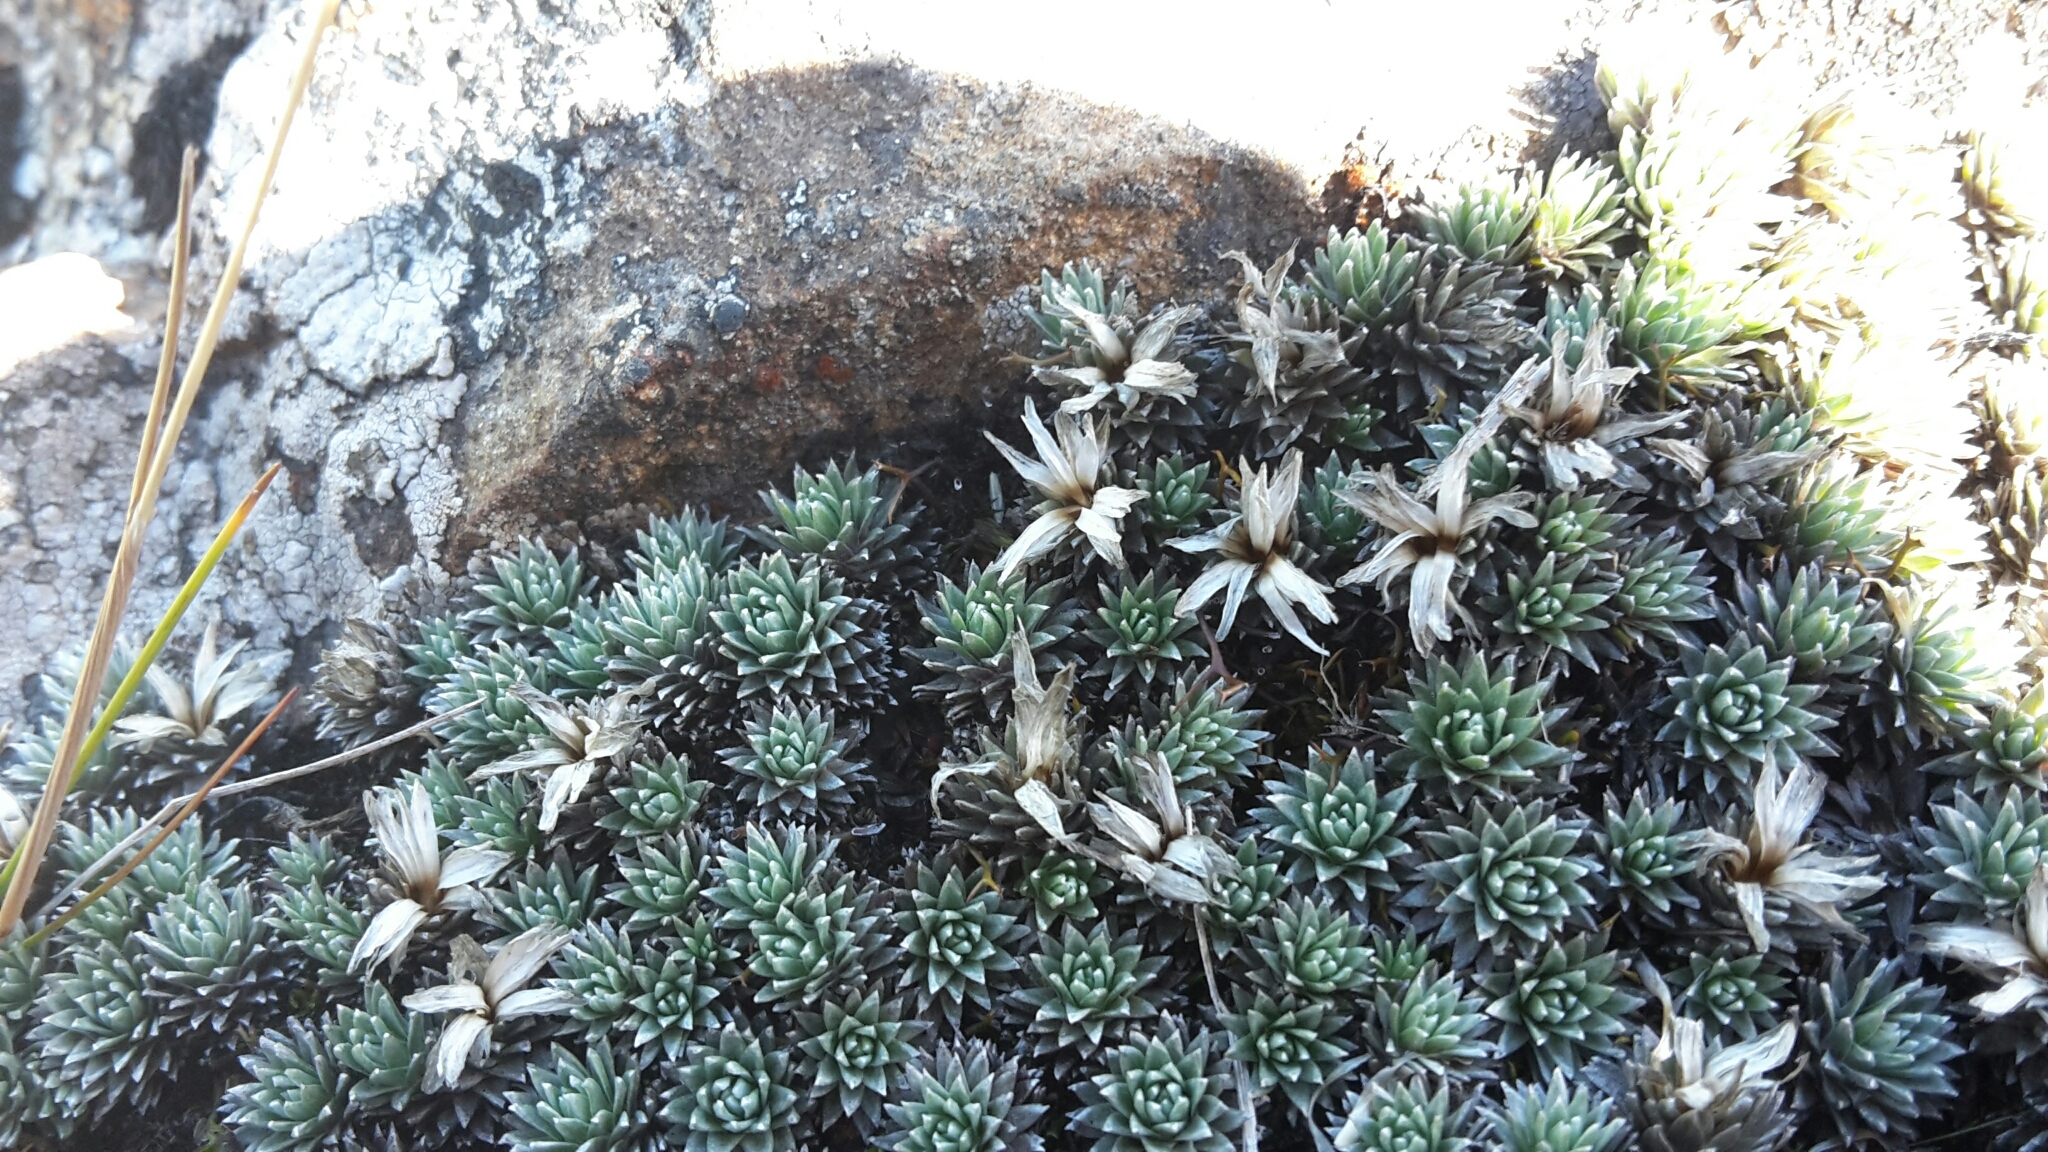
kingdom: Plantae
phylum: Tracheophyta
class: Magnoliopsida
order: Asterales
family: Asteraceae
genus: Raoulia
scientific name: Raoulia grandiflora
